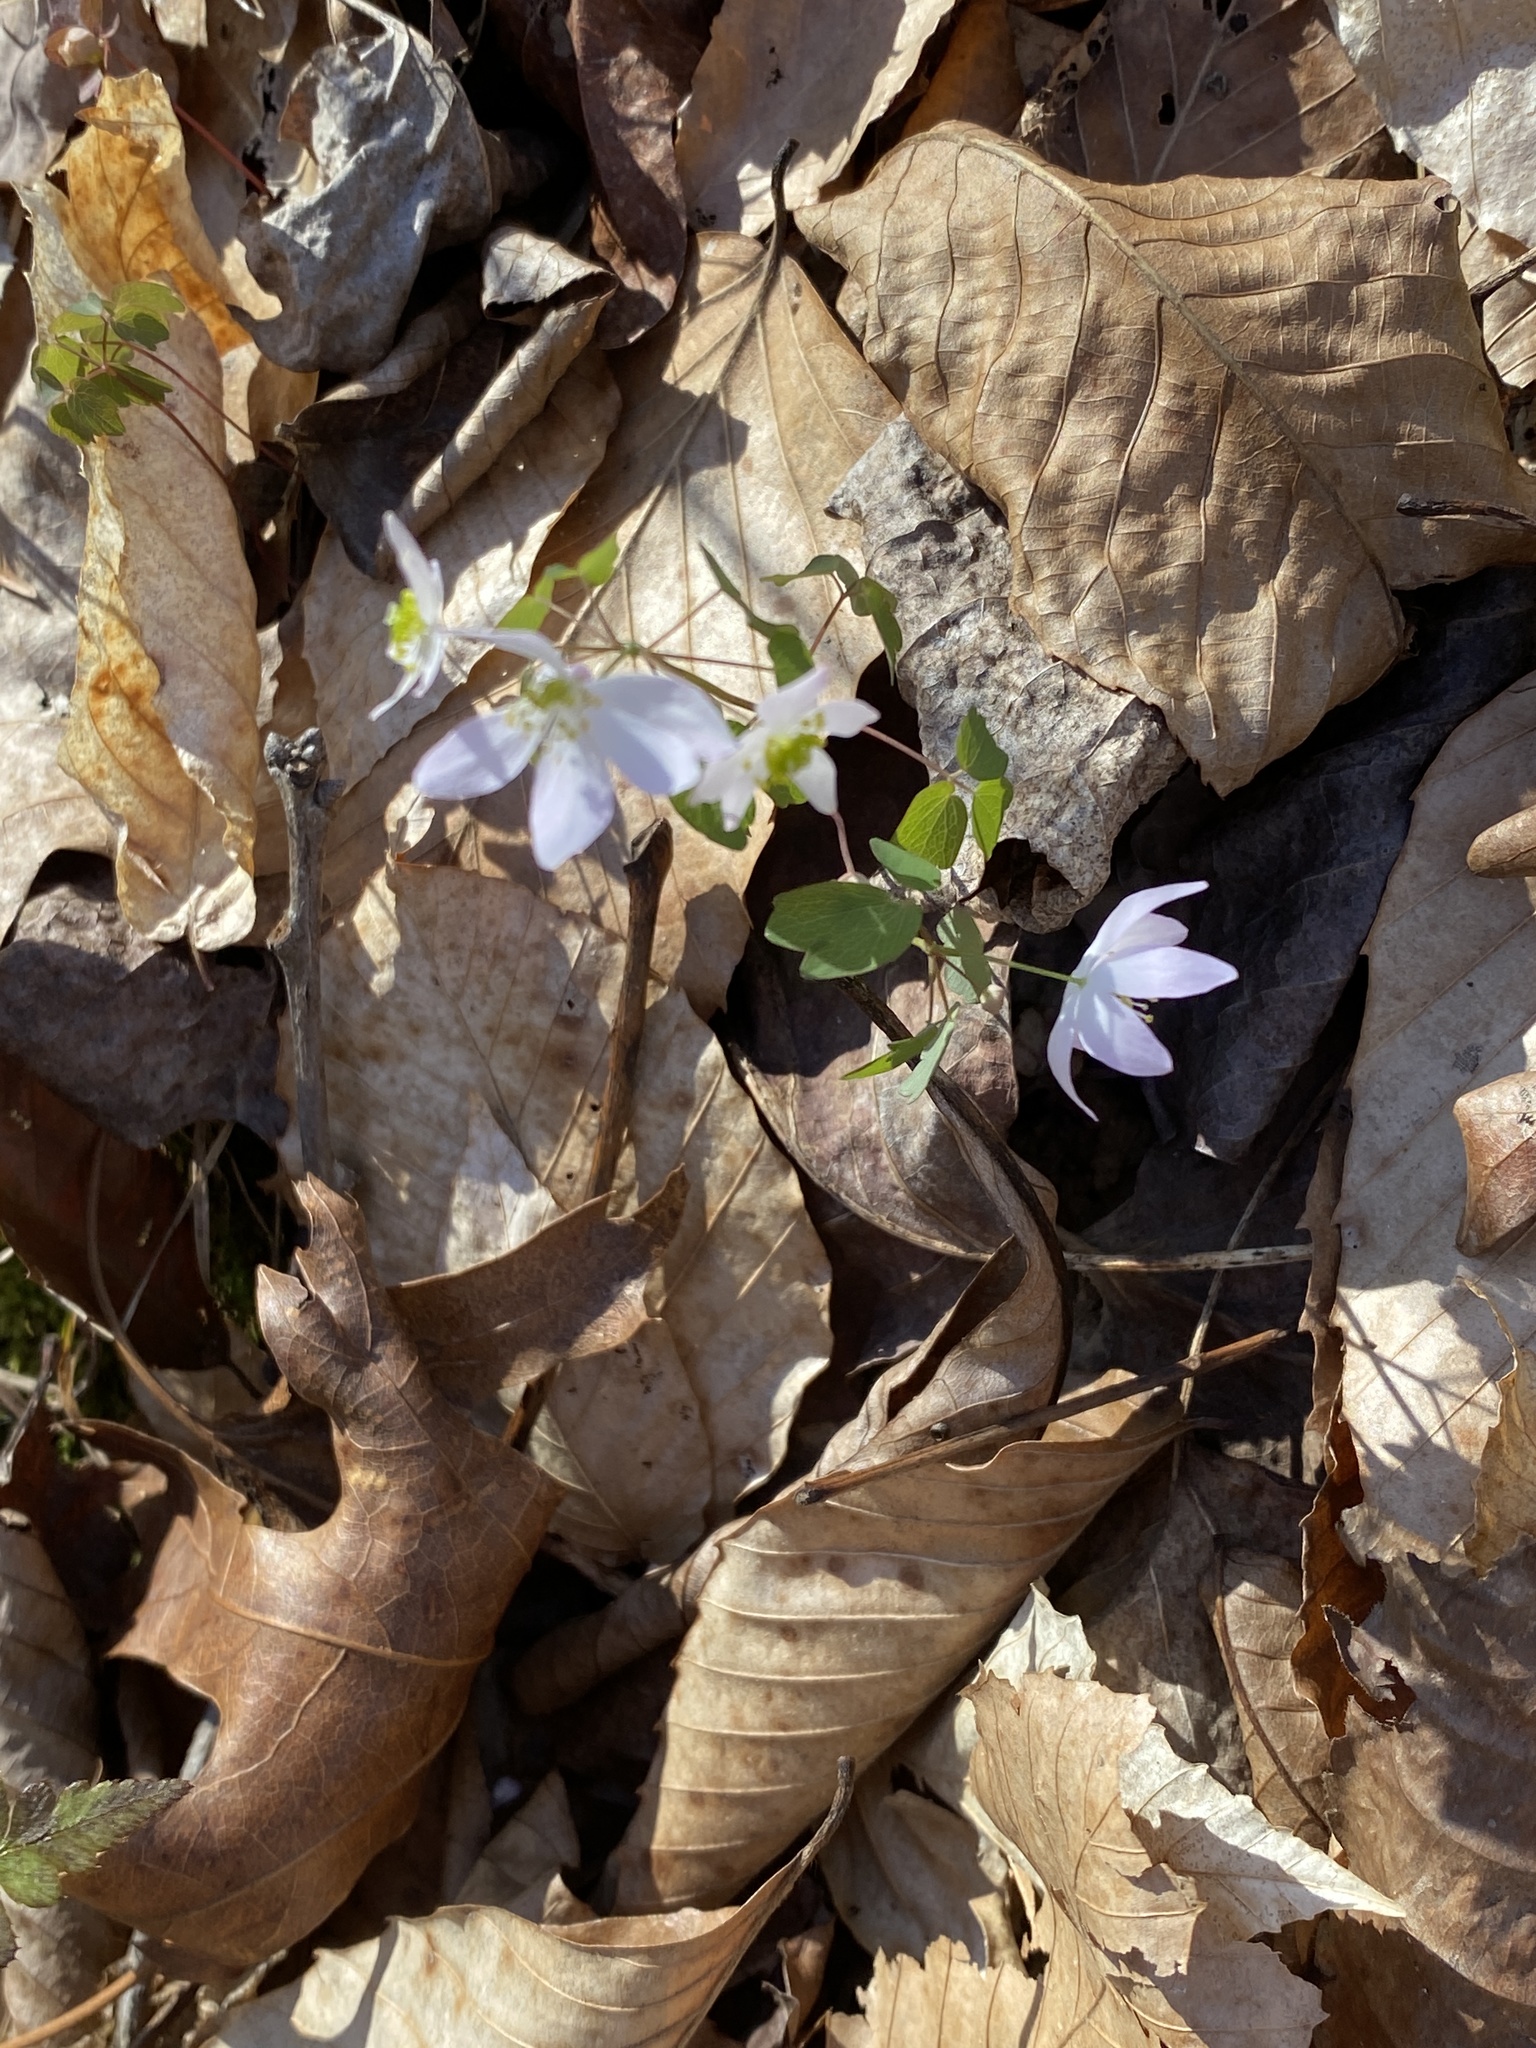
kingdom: Plantae
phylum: Tracheophyta
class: Magnoliopsida
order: Ranunculales
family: Ranunculaceae
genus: Thalictrum
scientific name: Thalictrum thalictroides
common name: Rue-anemone
